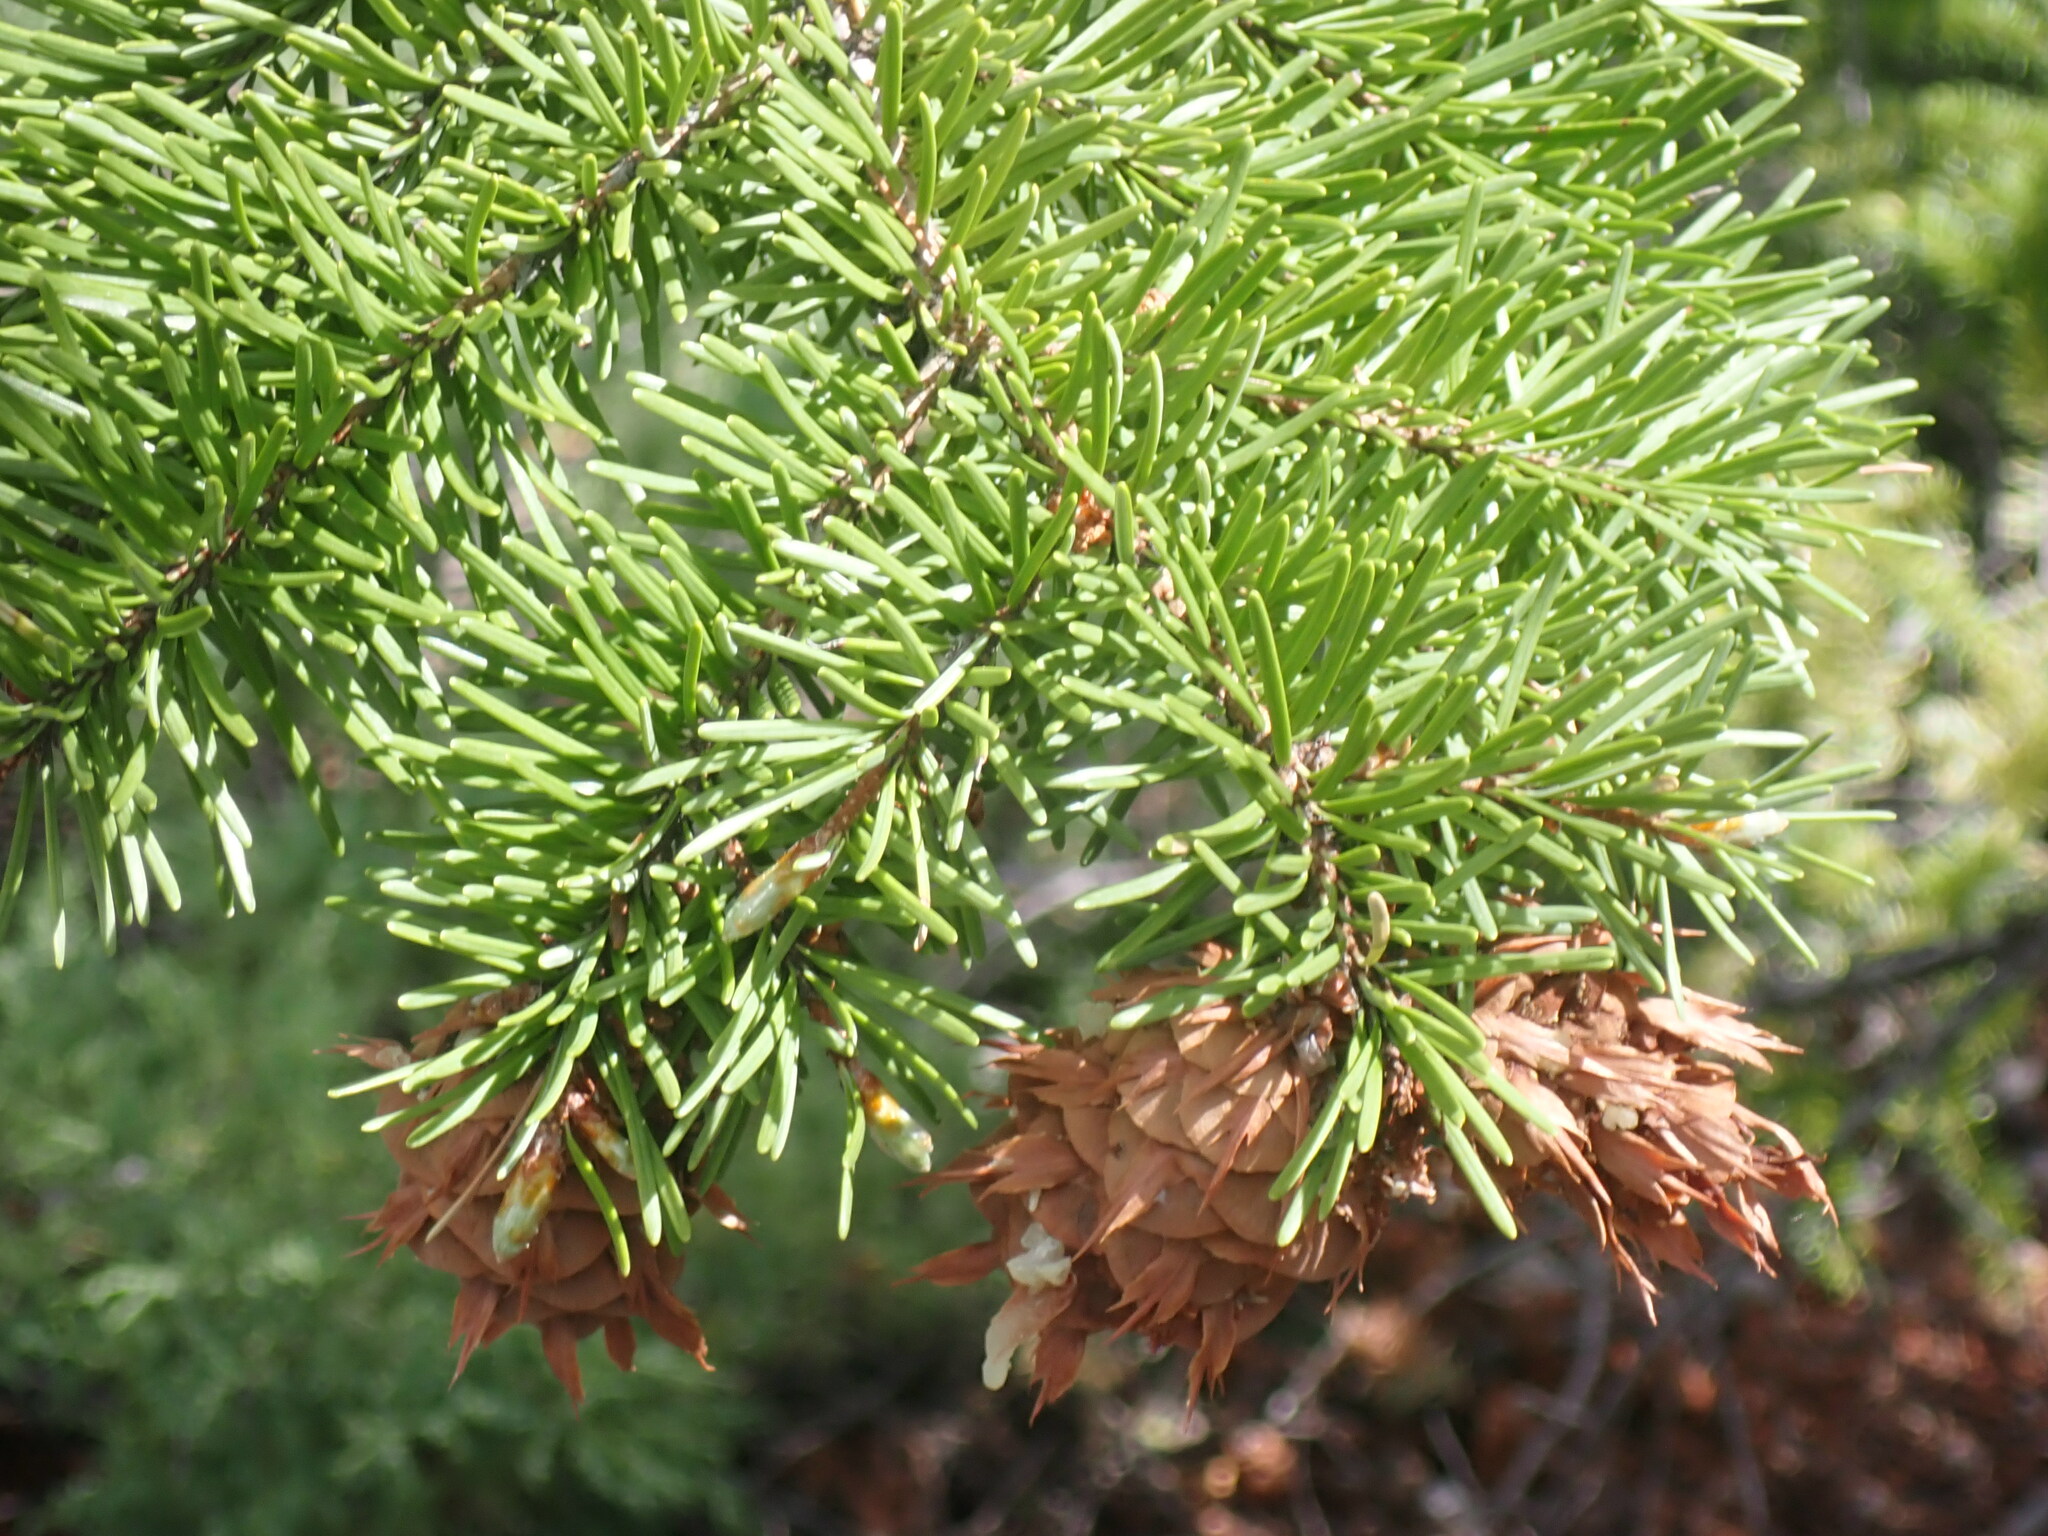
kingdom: Plantae
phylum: Tracheophyta
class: Pinopsida
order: Pinales
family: Pinaceae
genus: Pseudotsuga
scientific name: Pseudotsuga menziesii
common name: Douglas fir
